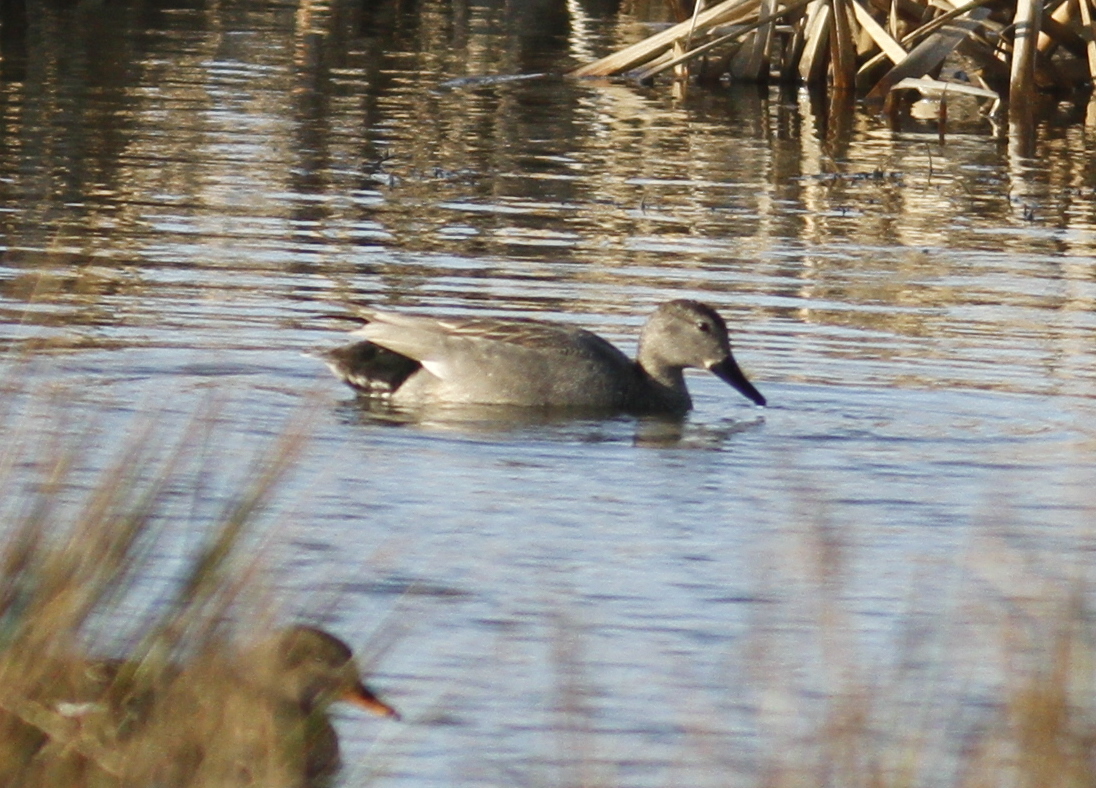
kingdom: Animalia
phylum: Chordata
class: Aves
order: Anseriformes
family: Anatidae
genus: Mareca
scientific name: Mareca strepera
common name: Gadwall
